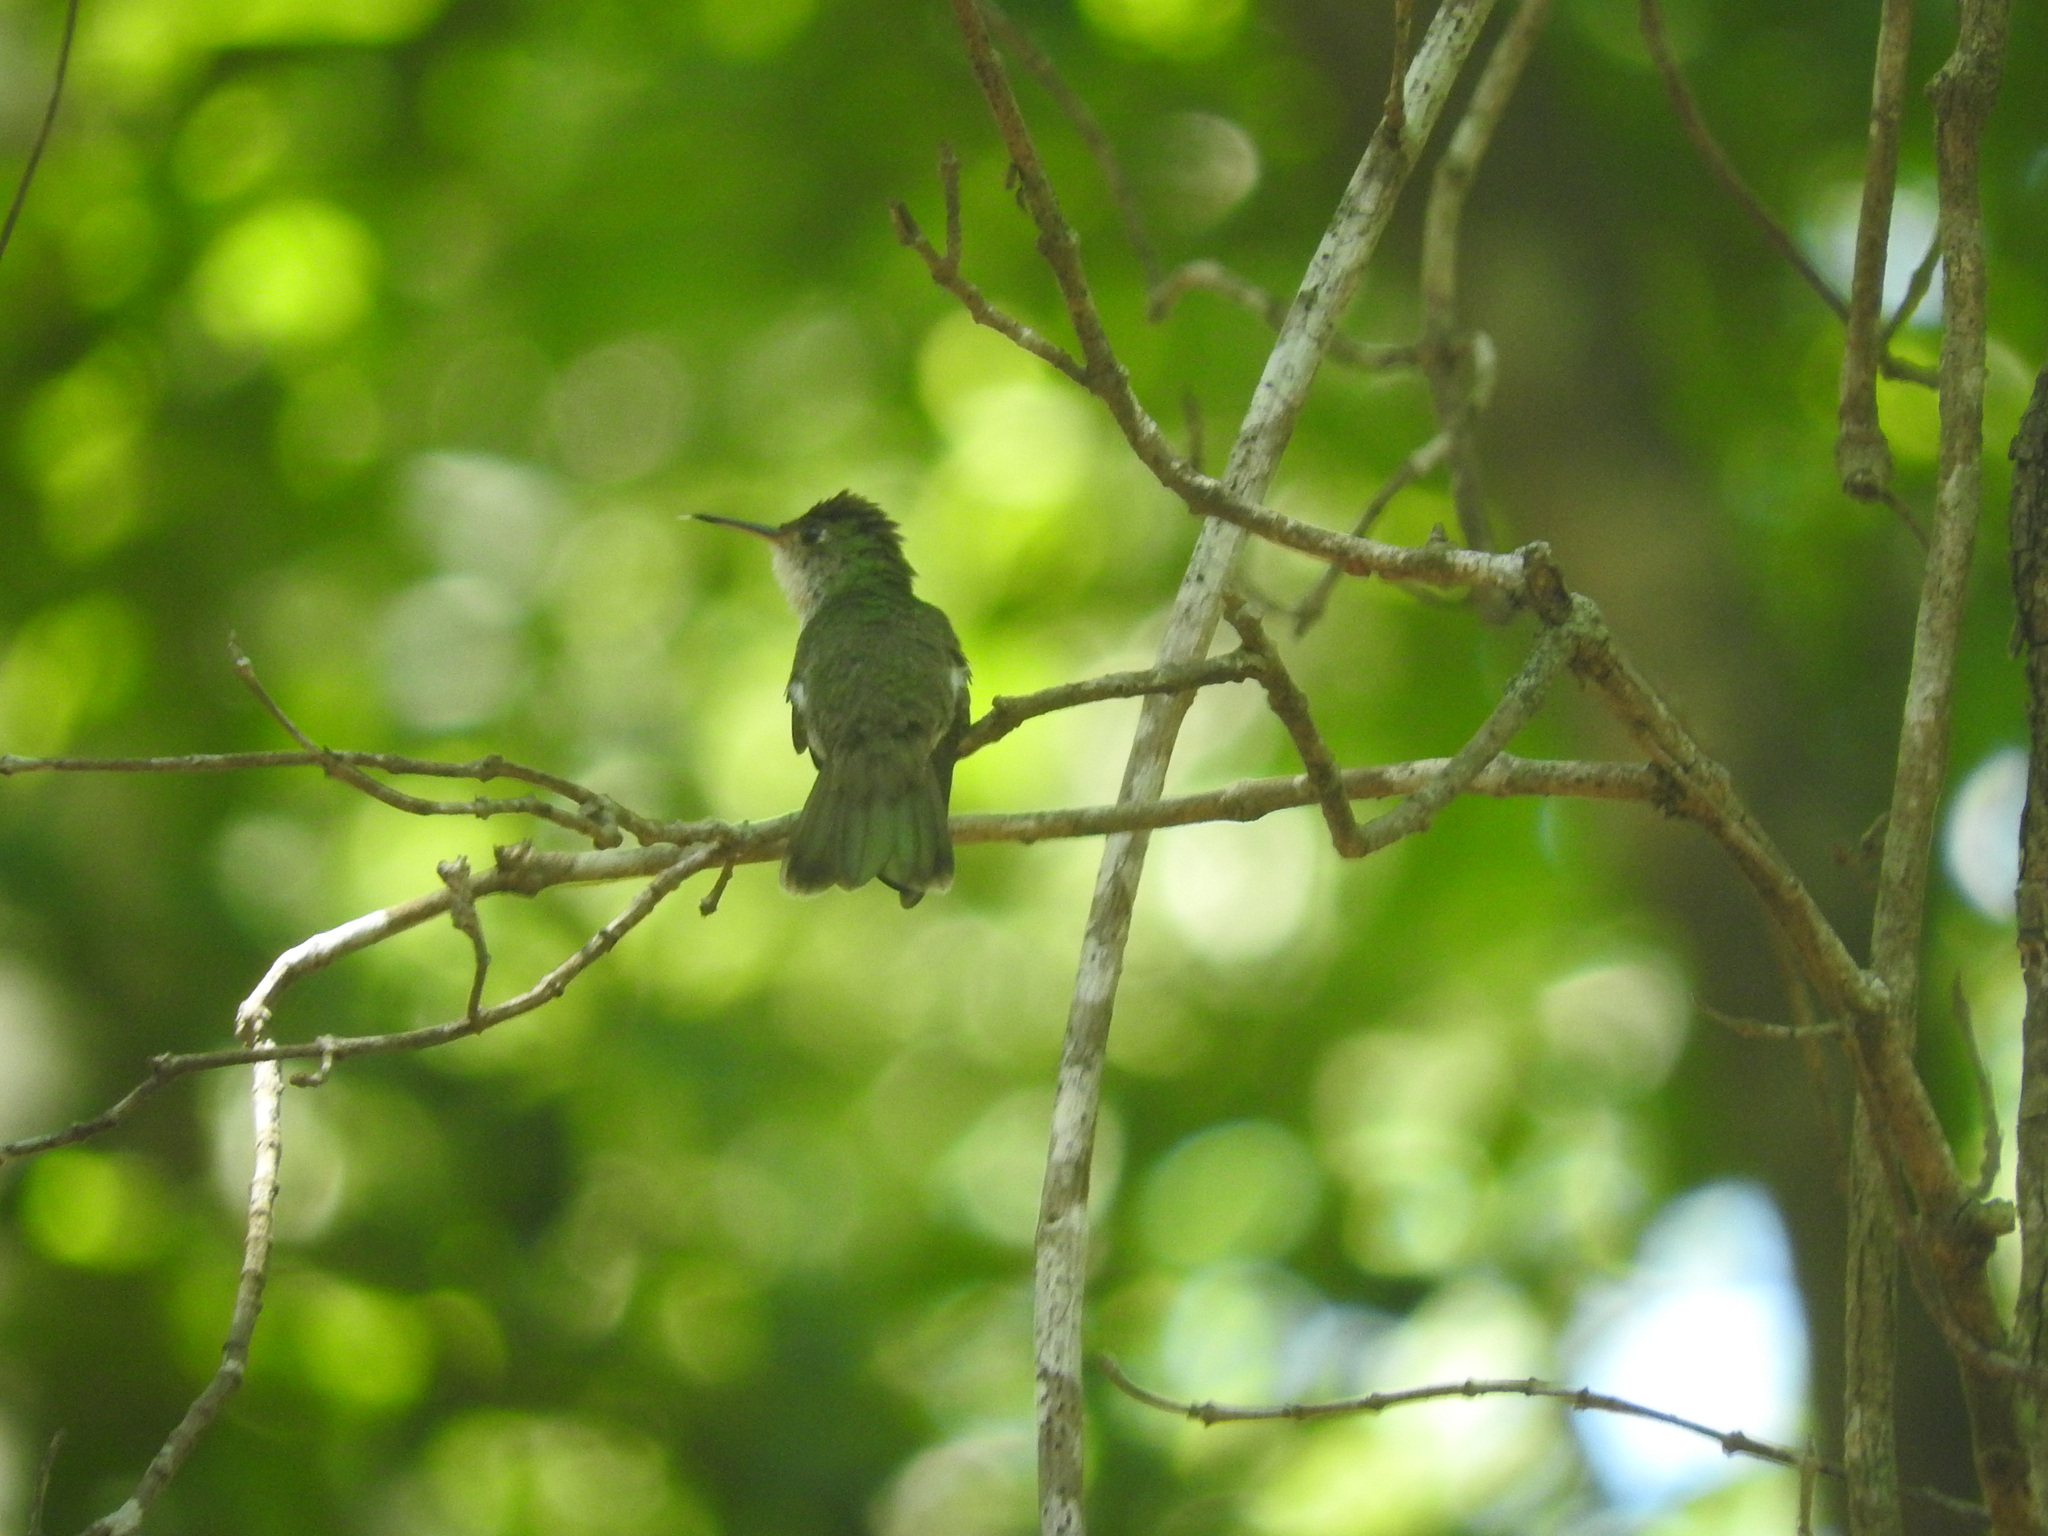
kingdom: Animalia
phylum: Chordata
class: Aves
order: Apodiformes
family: Trochilidae
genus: Chlorestes
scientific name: Chlorestes candida
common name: White-bellied emerald
